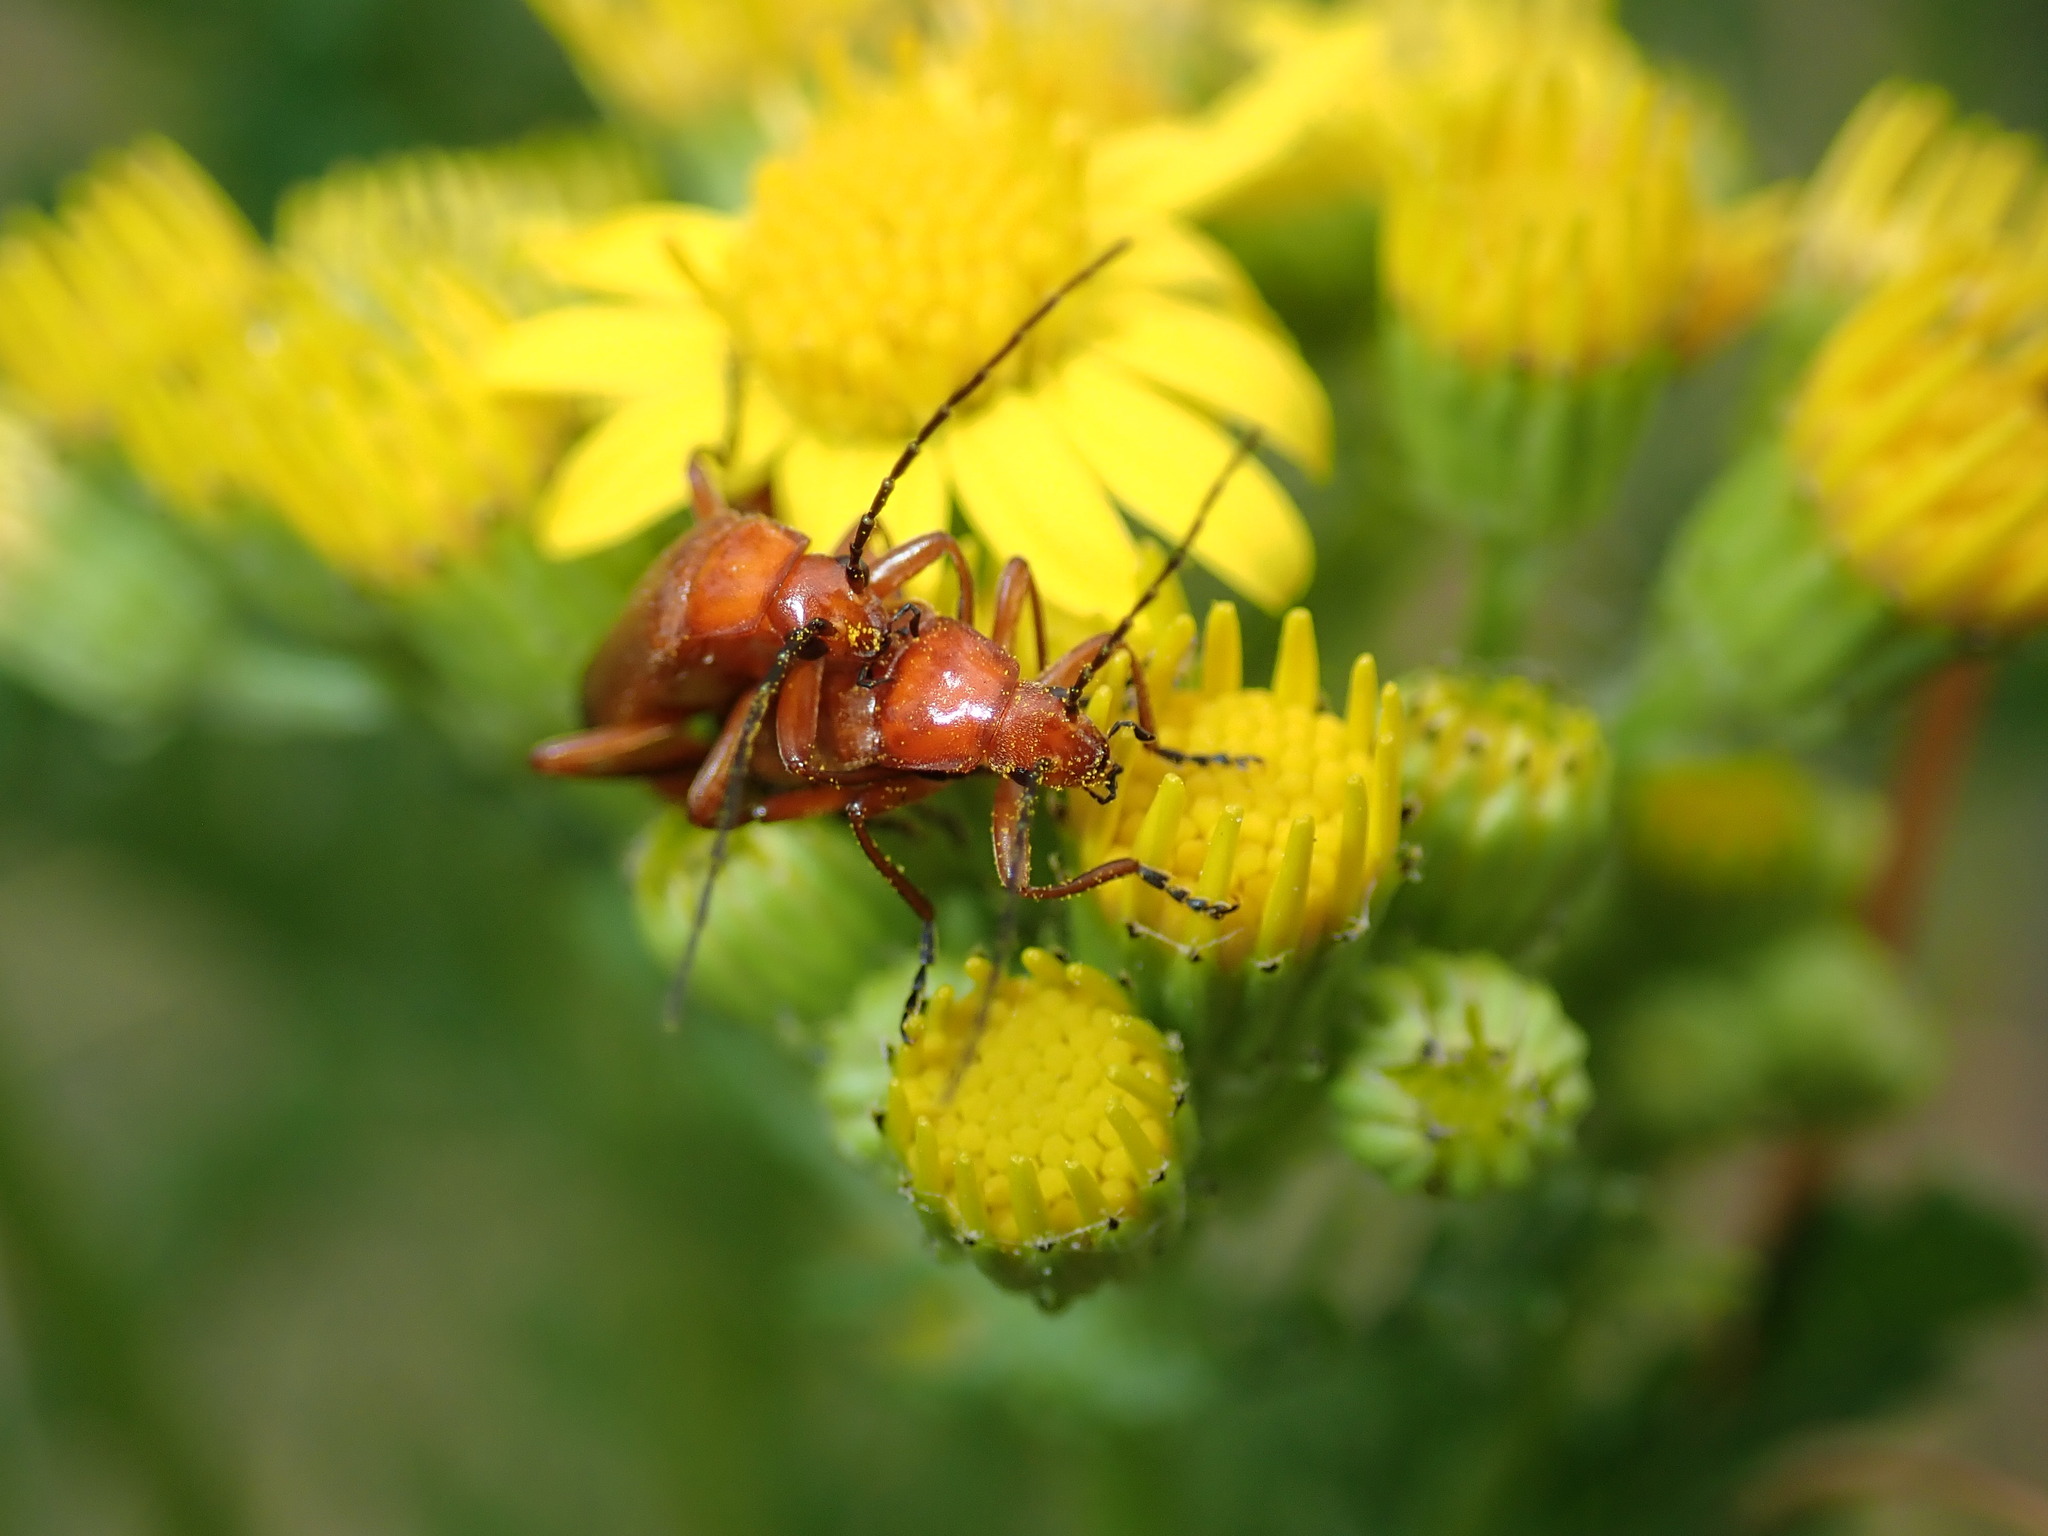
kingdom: Animalia
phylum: Arthropoda
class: Insecta
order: Coleoptera
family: Cantharidae
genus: Rhagonycha
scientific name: Rhagonycha fulva
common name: Common red soldier beetle
